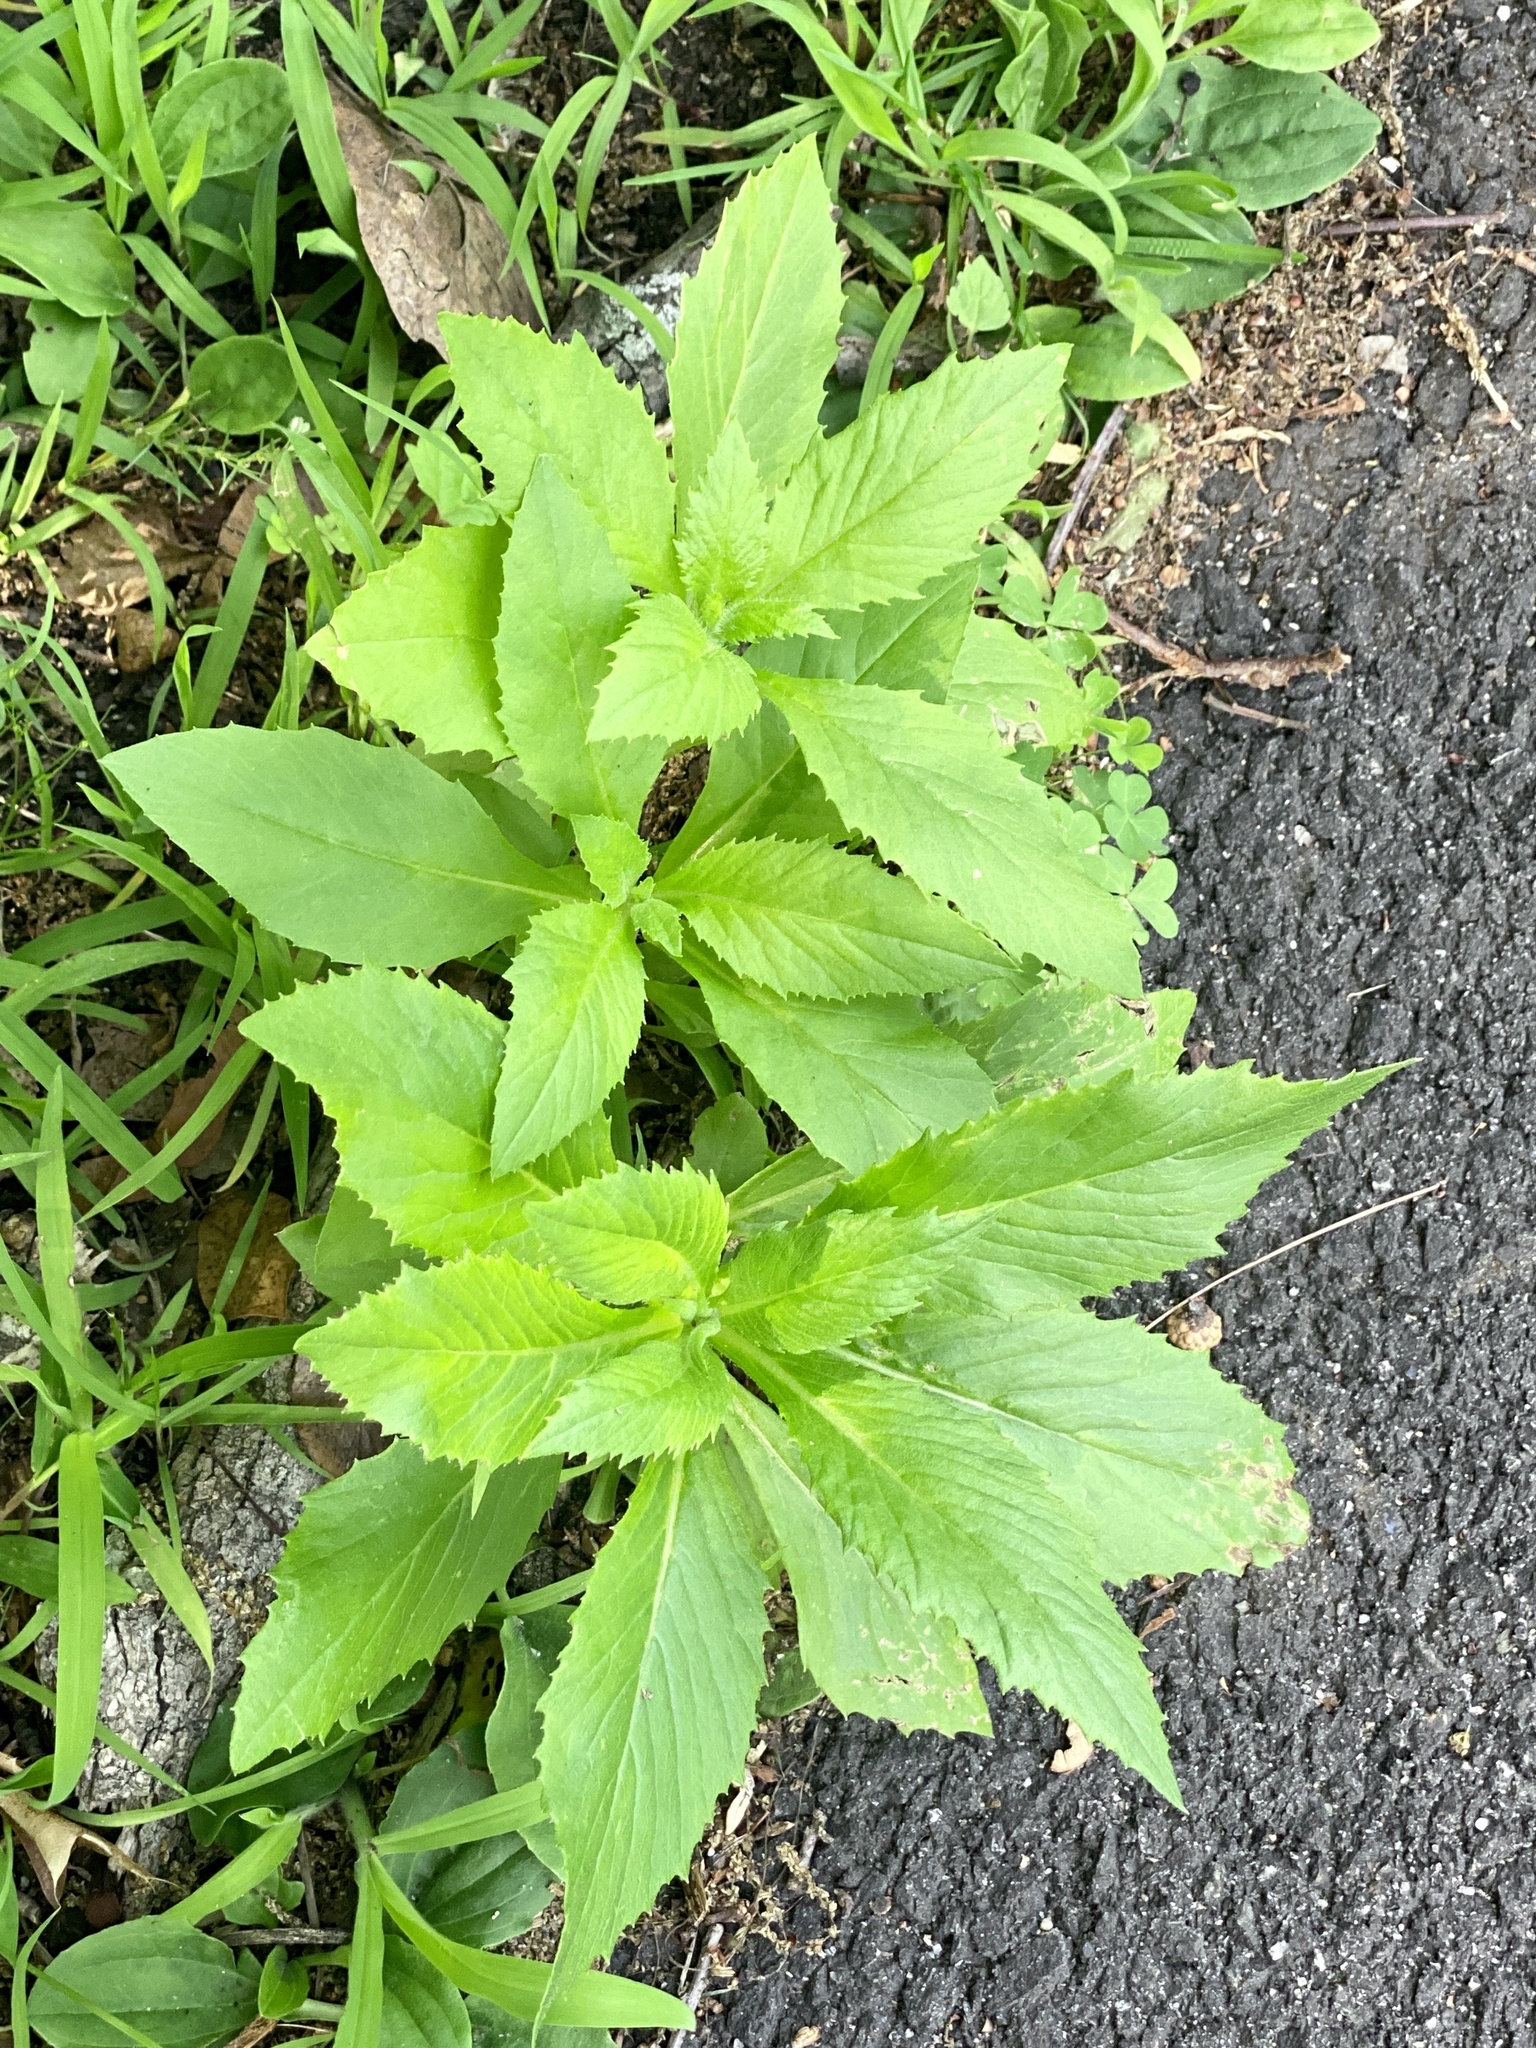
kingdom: Plantae
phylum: Tracheophyta
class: Magnoliopsida
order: Asterales
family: Asteraceae
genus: Erechtites
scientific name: Erechtites hieraciifolius
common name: American burnweed
